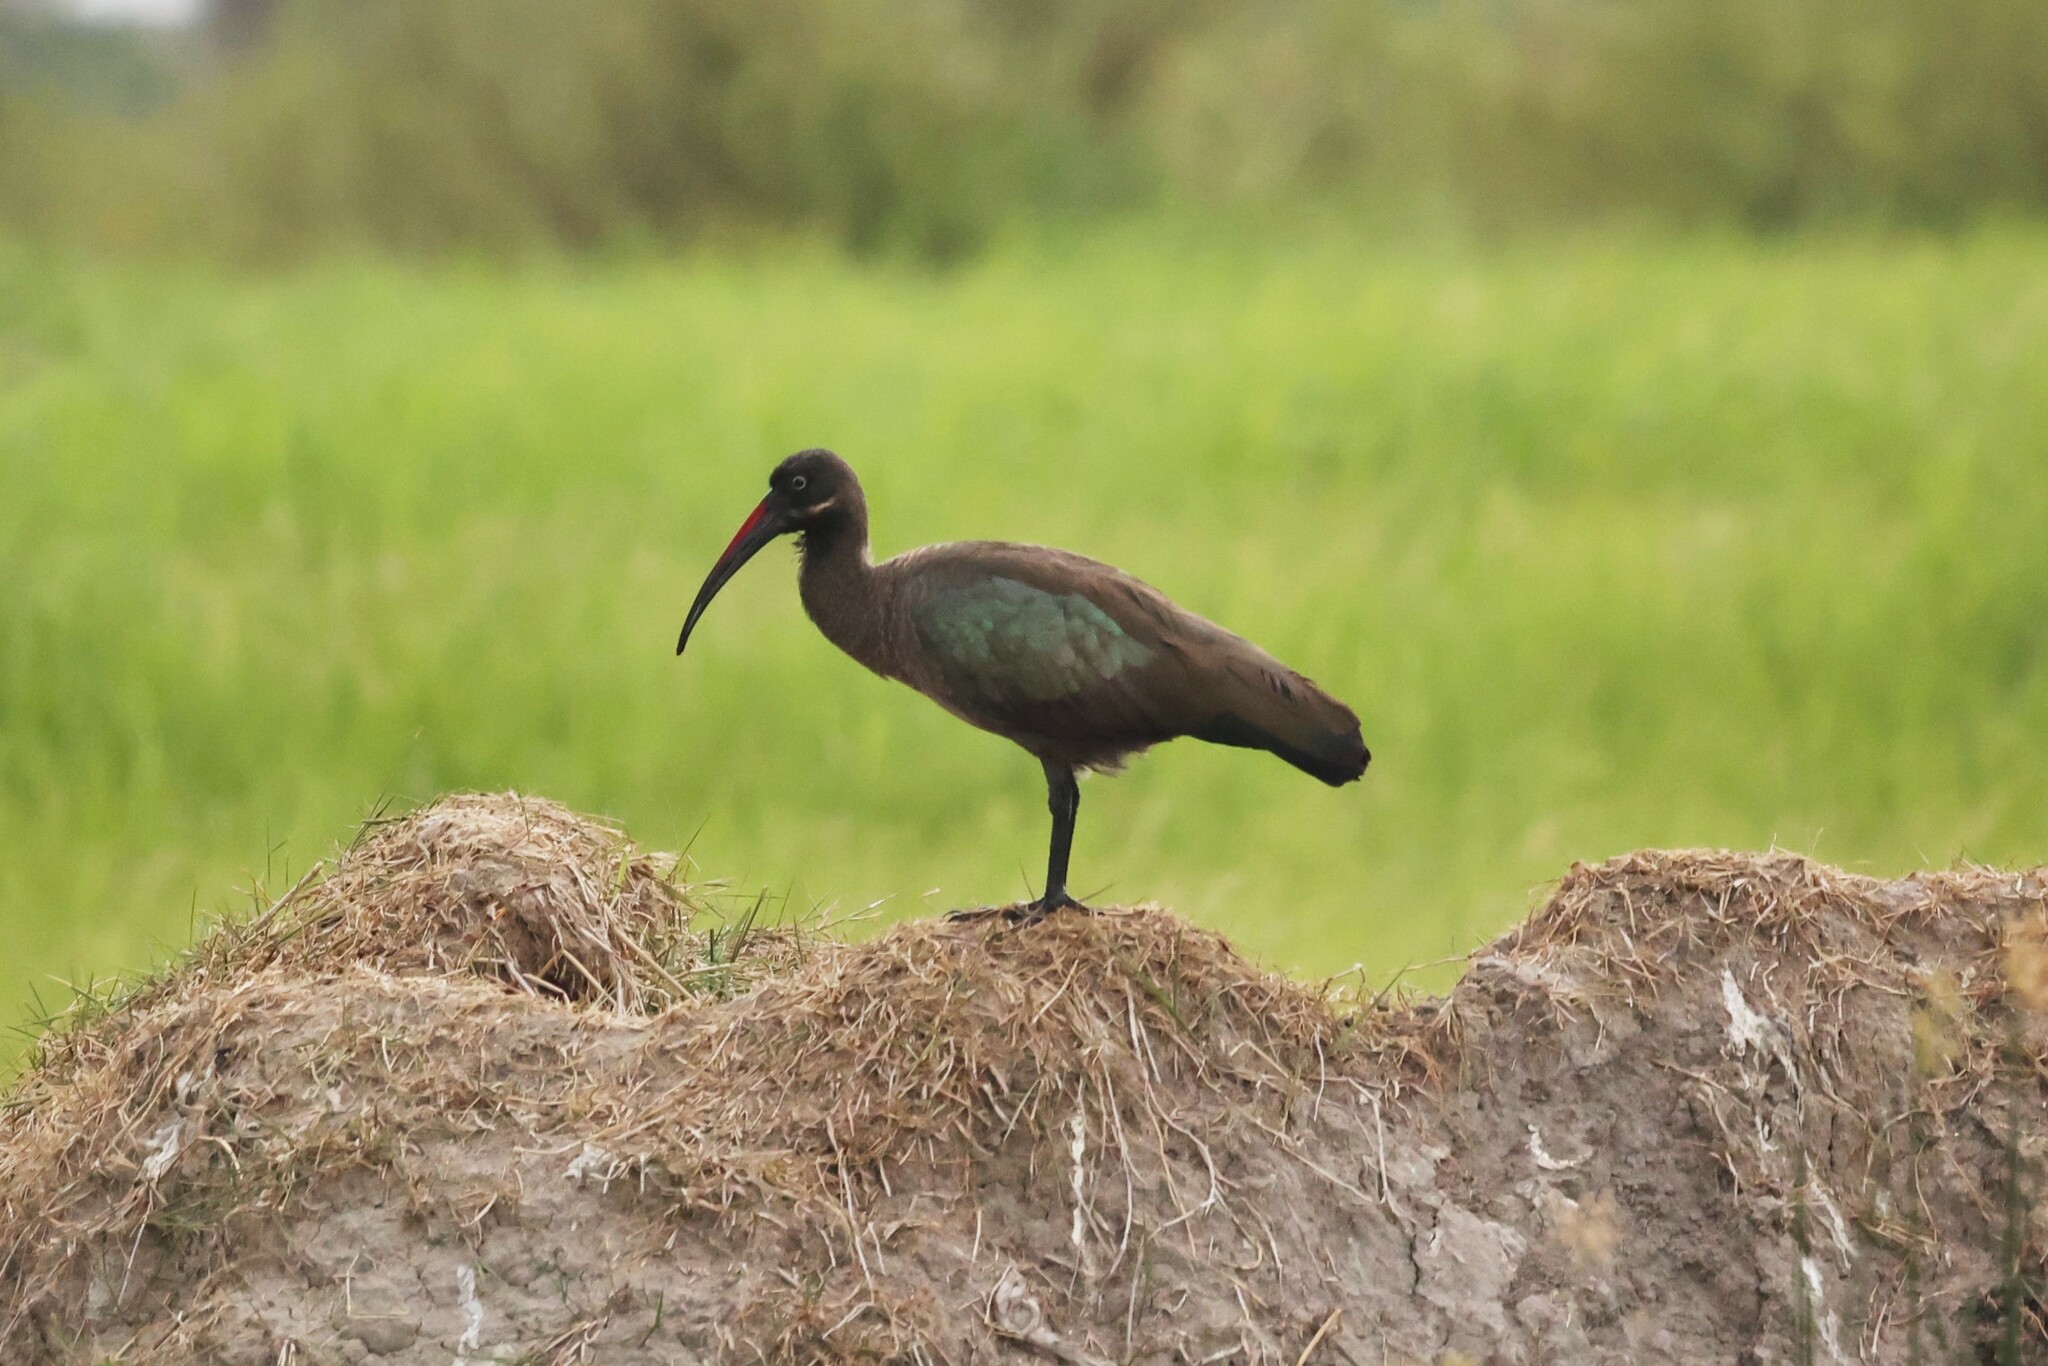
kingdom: Animalia
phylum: Chordata
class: Aves
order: Pelecaniformes
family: Threskiornithidae
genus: Bostrychia
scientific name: Bostrychia hagedash
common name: Hadada ibis
